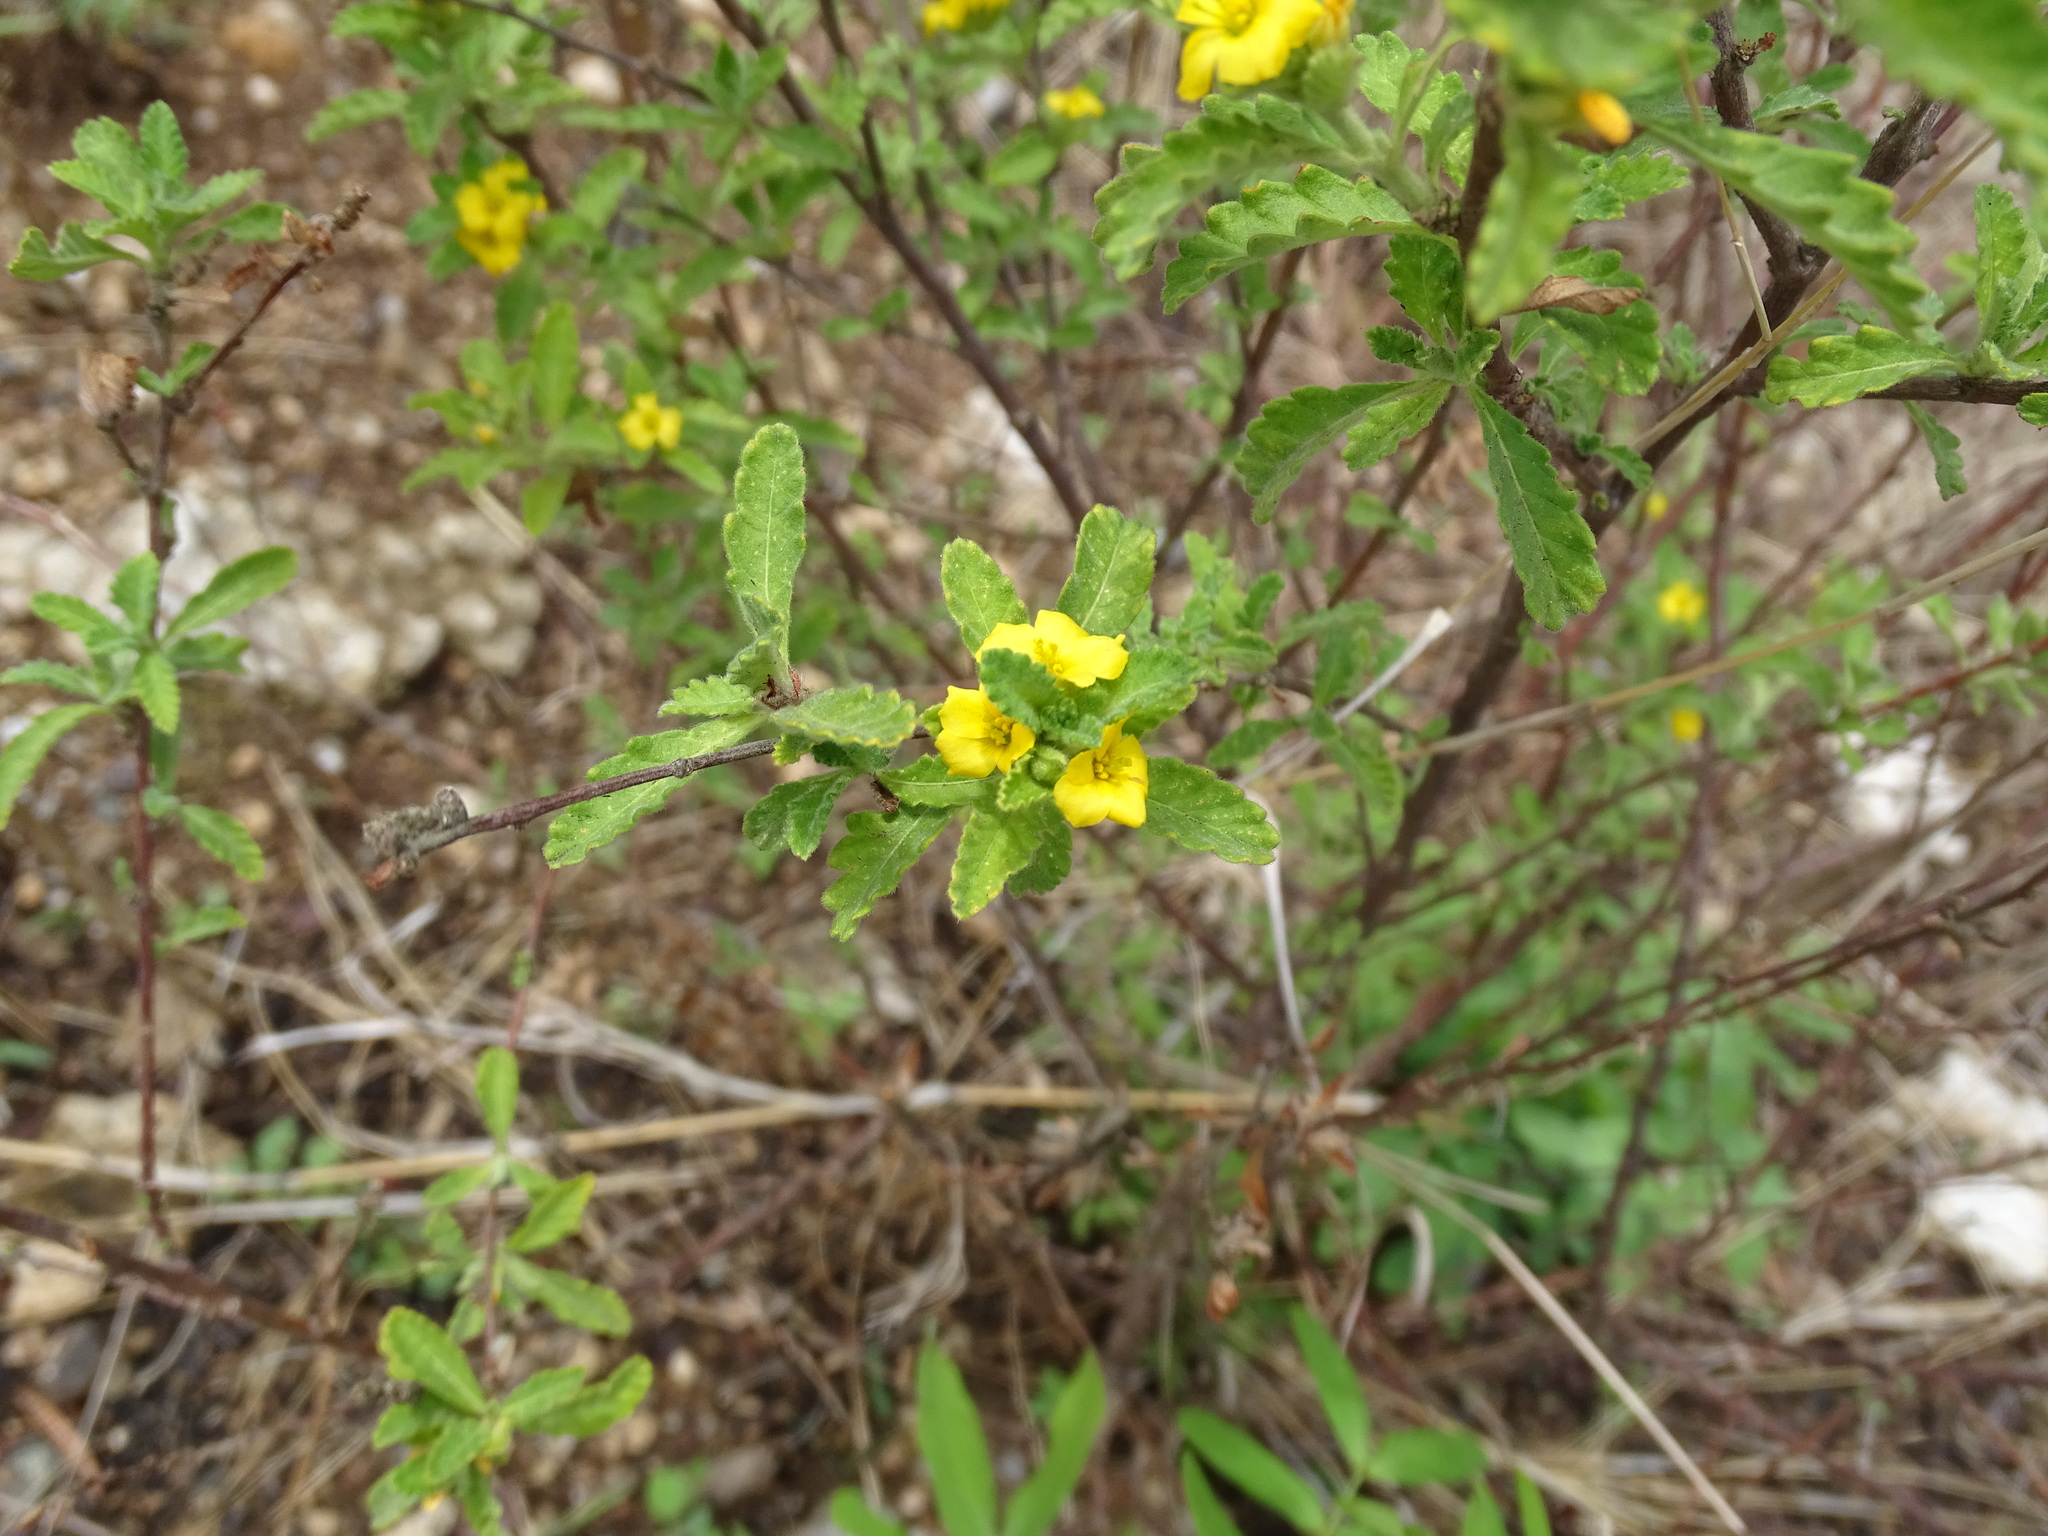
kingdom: Plantae
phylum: Tracheophyta
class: Magnoliopsida
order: Malpighiales
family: Turneraceae
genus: Turnera
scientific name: Turnera diffusa
